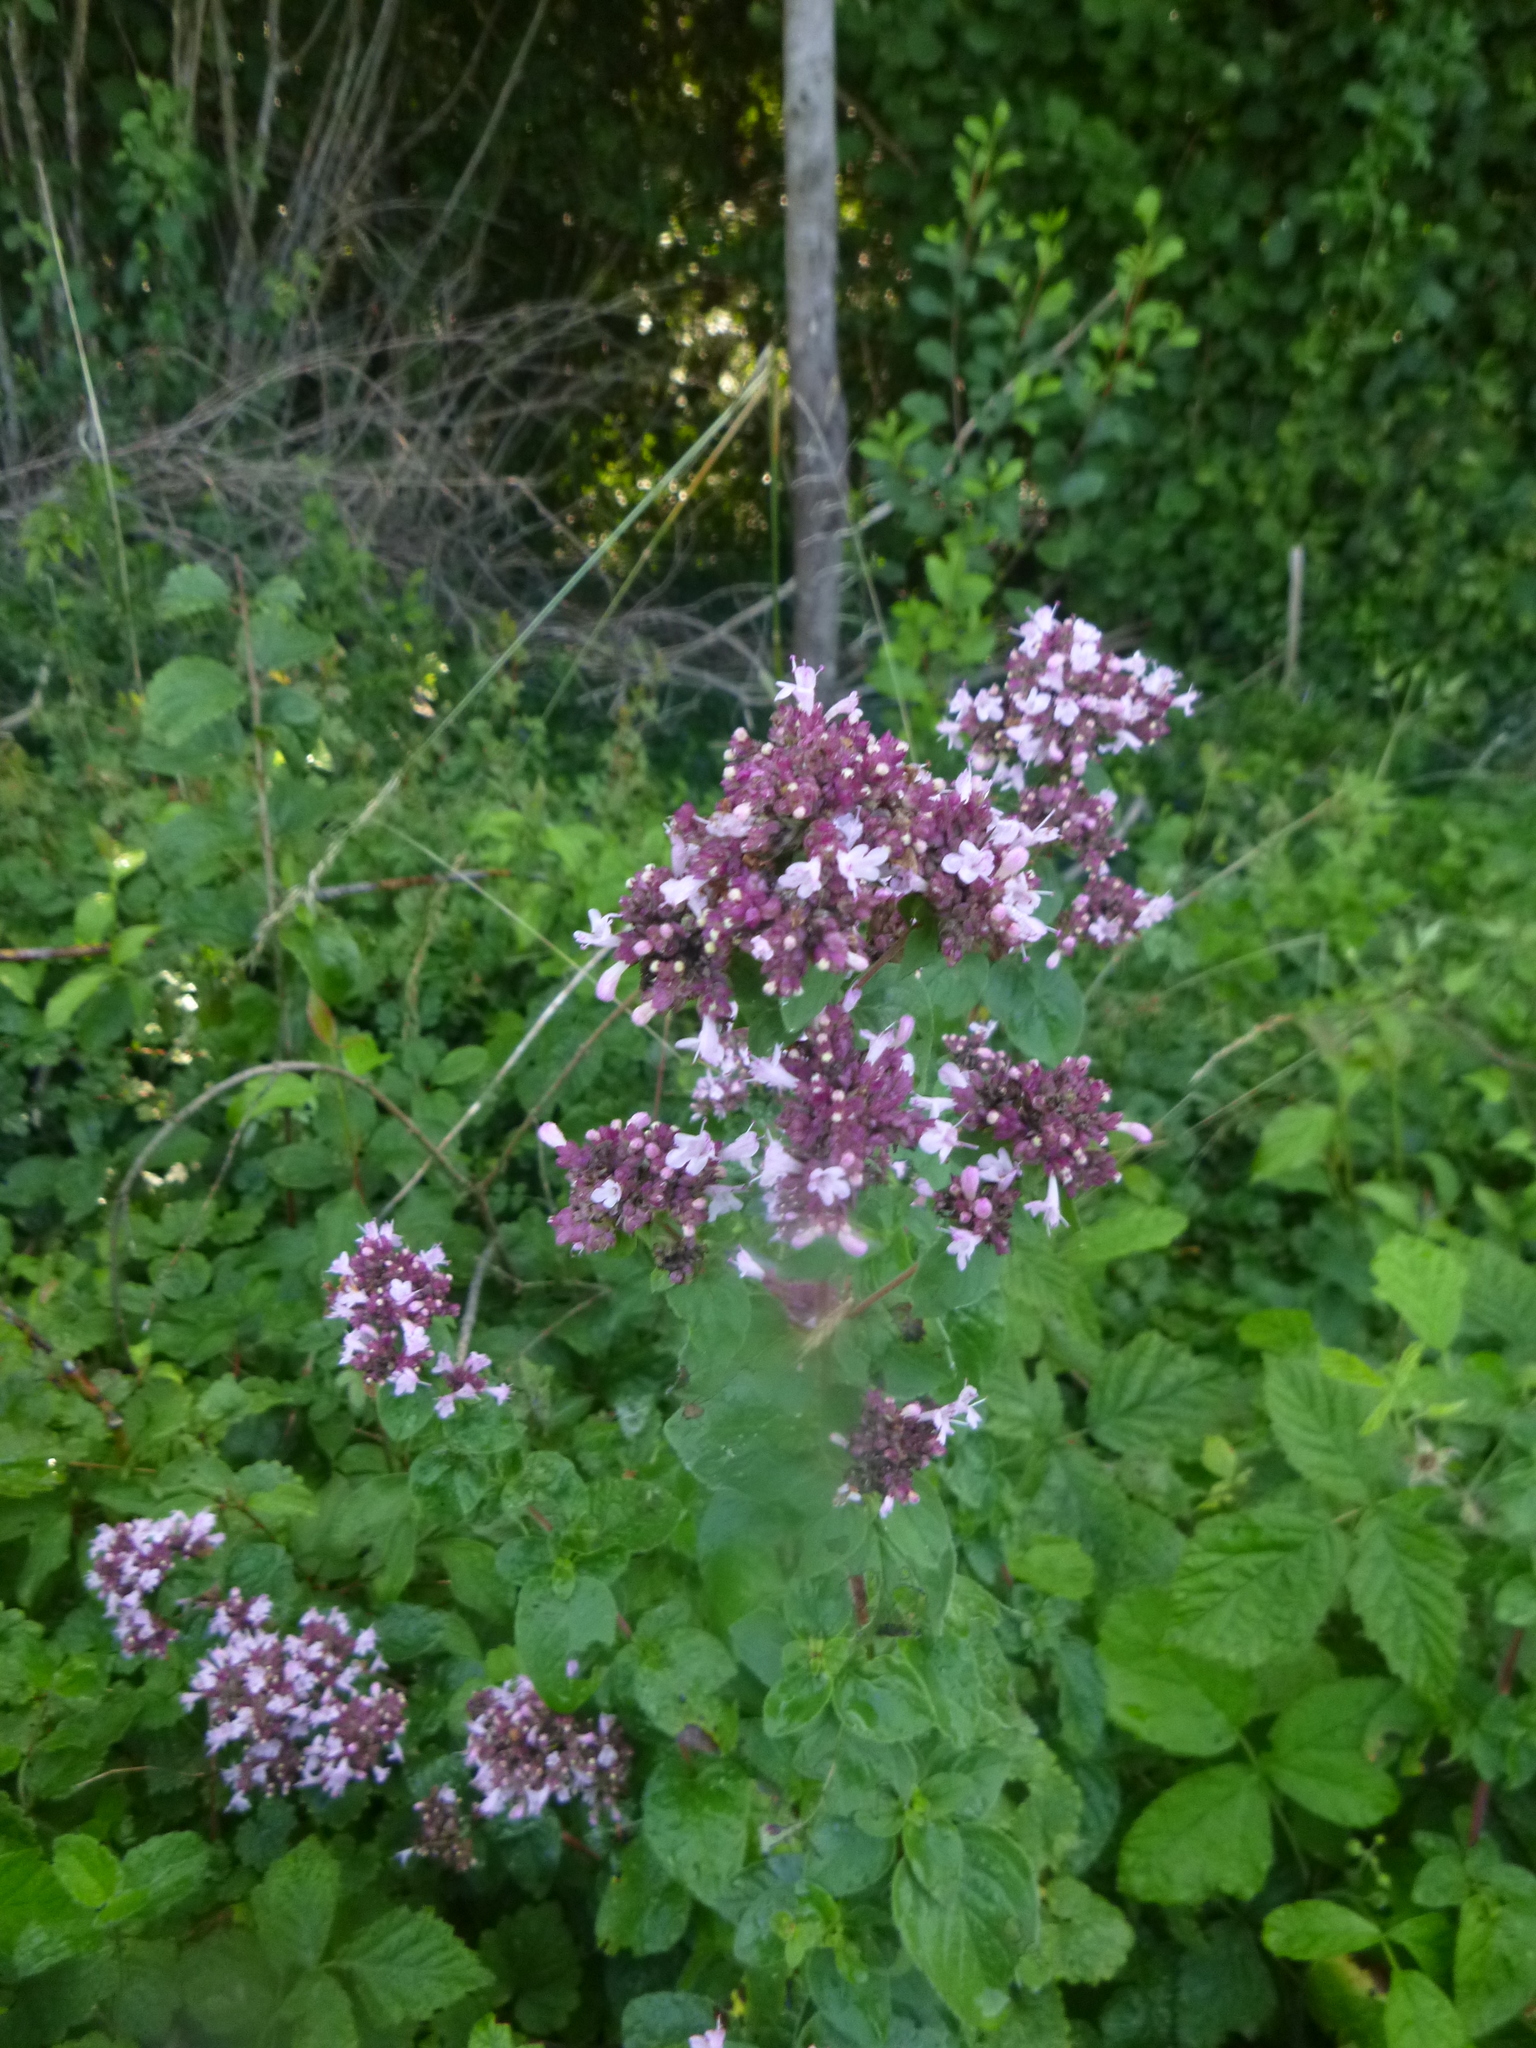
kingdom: Plantae
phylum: Tracheophyta
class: Magnoliopsida
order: Lamiales
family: Lamiaceae
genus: Origanum
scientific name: Origanum vulgare
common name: Wild marjoram
